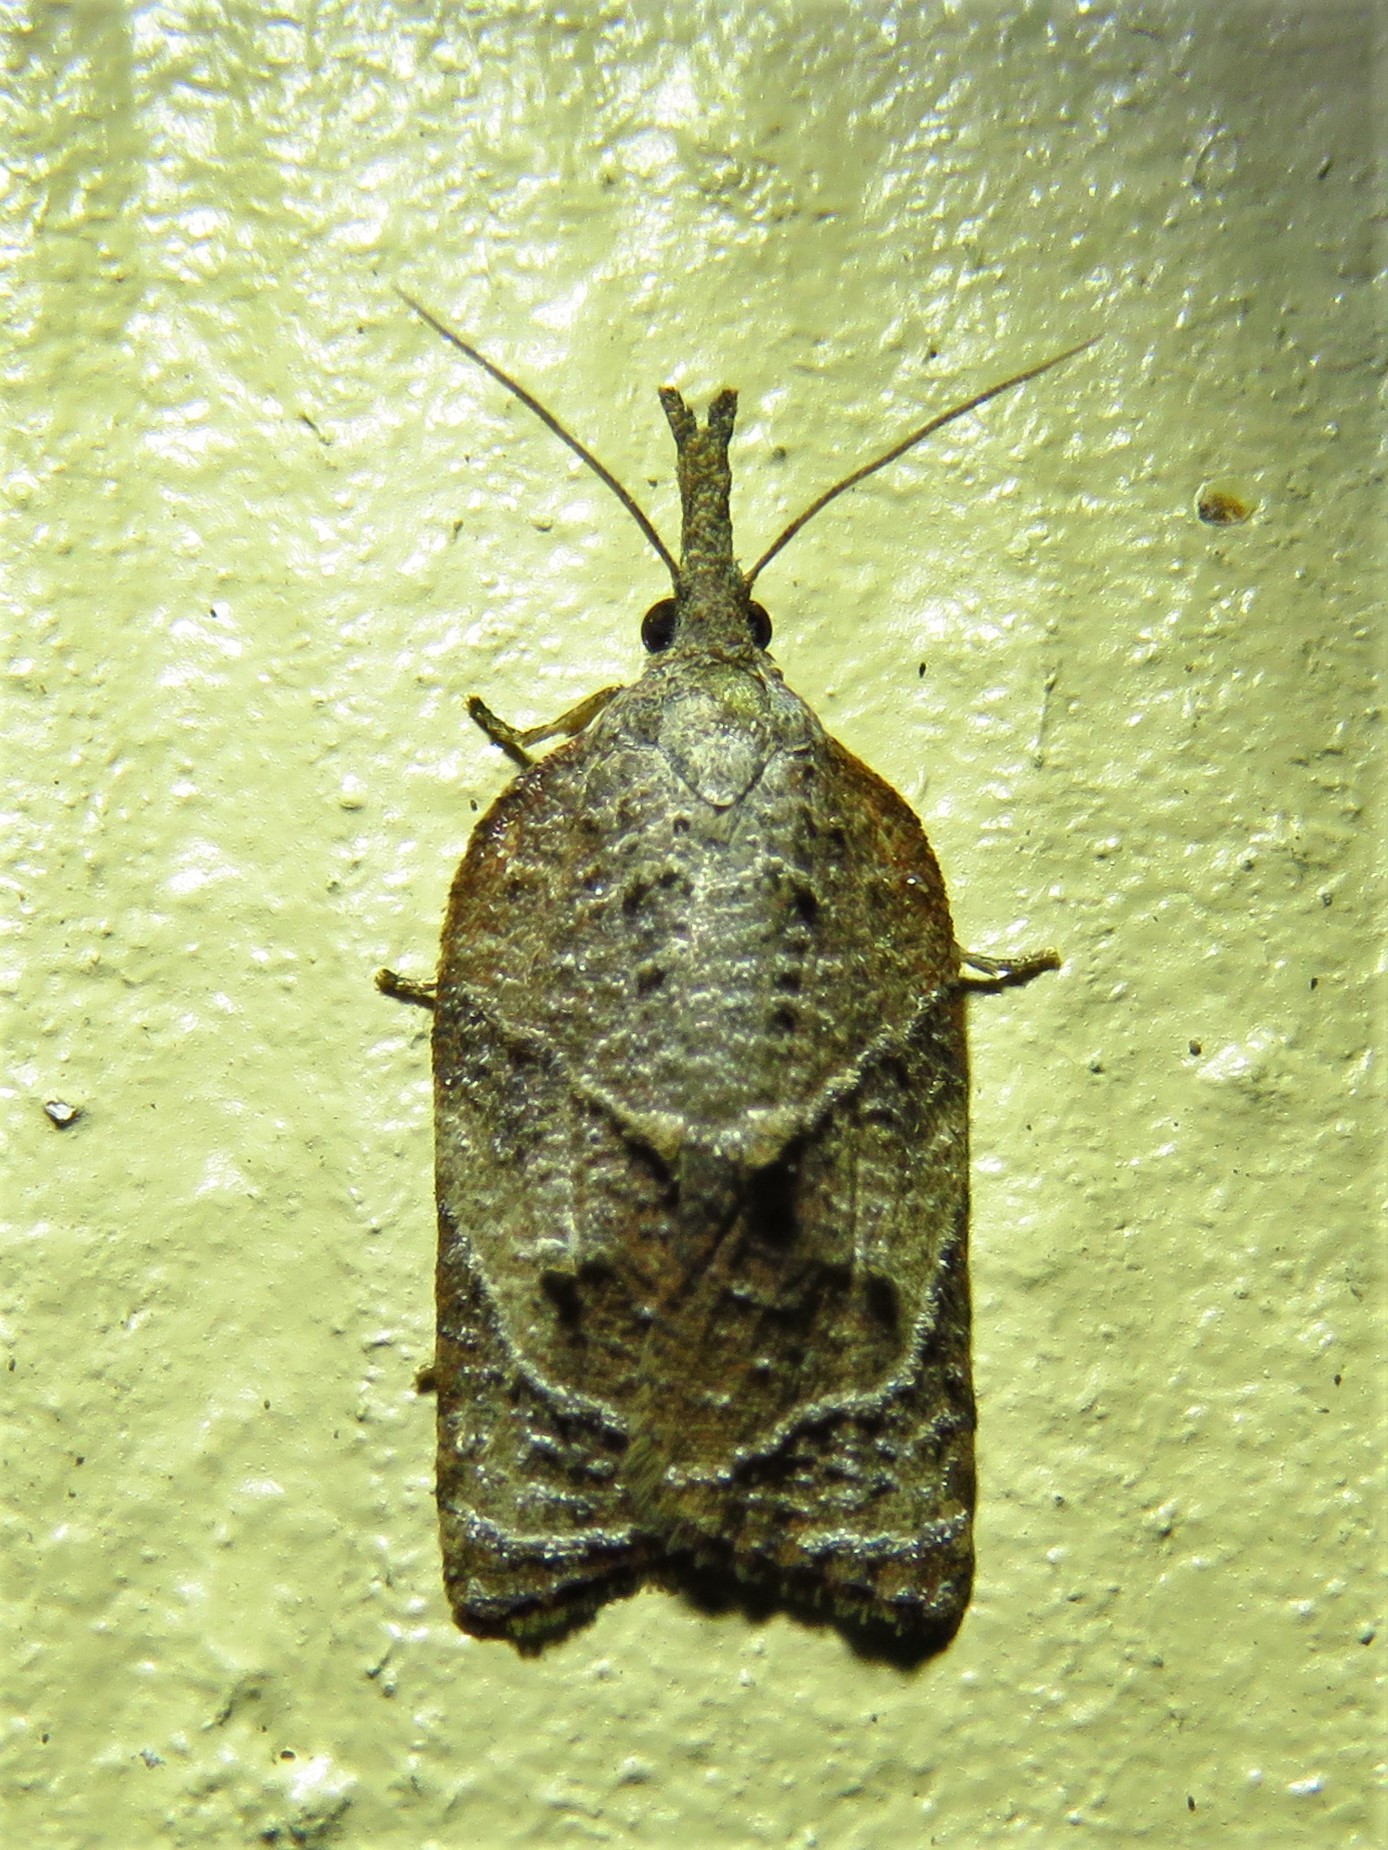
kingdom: Animalia
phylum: Arthropoda
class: Insecta
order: Lepidoptera
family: Tortricidae
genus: Platynota
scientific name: Platynota rostrana
